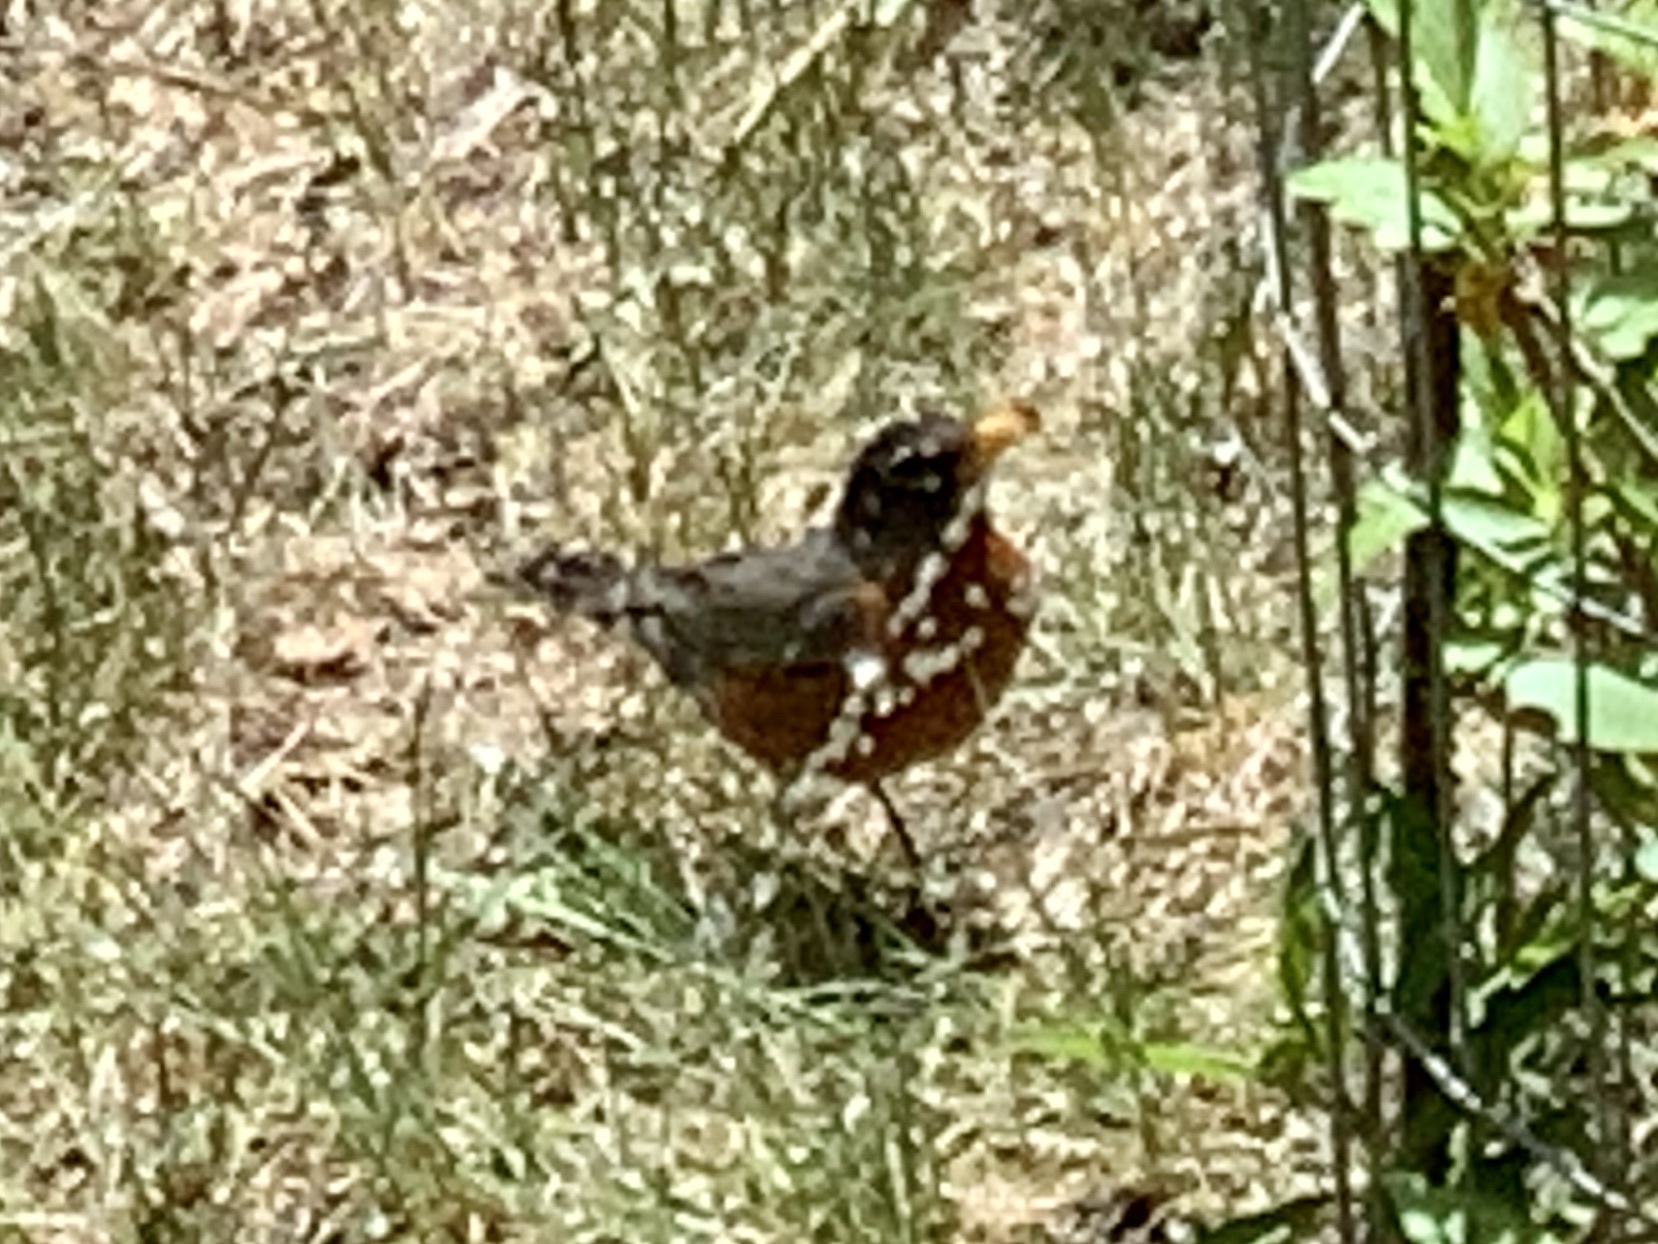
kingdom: Animalia
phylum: Chordata
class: Aves
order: Passeriformes
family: Turdidae
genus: Turdus
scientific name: Turdus migratorius
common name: American robin
